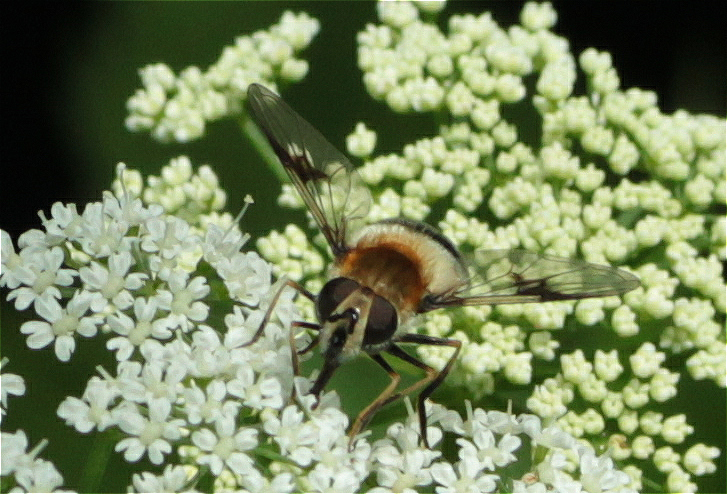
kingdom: Animalia
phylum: Arthropoda
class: Insecta
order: Diptera
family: Syrphidae
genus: Leucozona
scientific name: Leucozona lucorum
